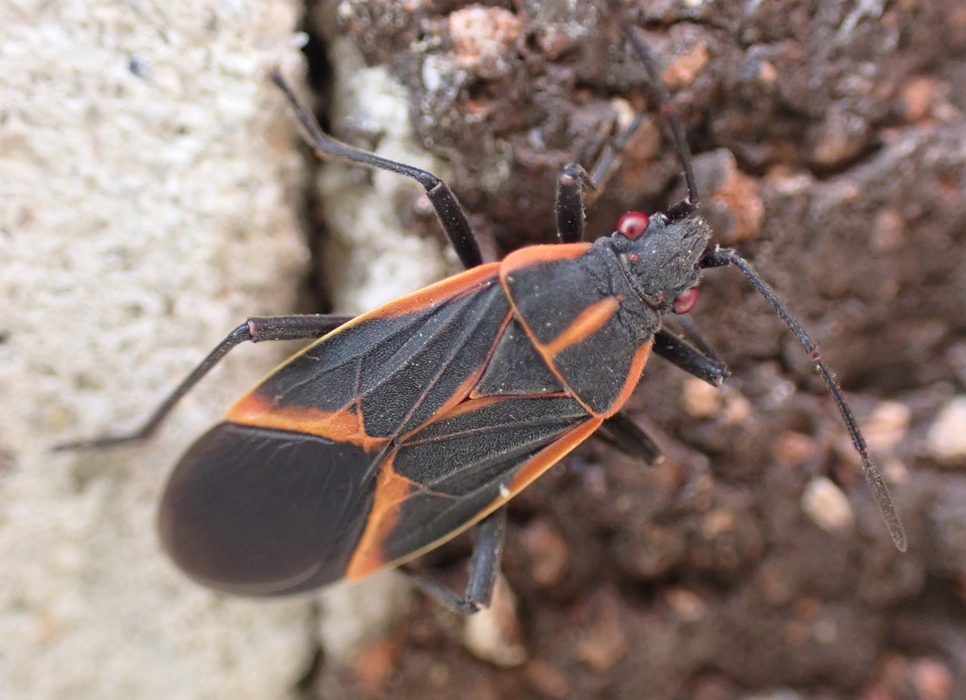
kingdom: Animalia
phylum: Arthropoda
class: Insecta
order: Hemiptera
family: Rhopalidae
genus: Boisea
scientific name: Boisea trivittata
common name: Boxelder bug
